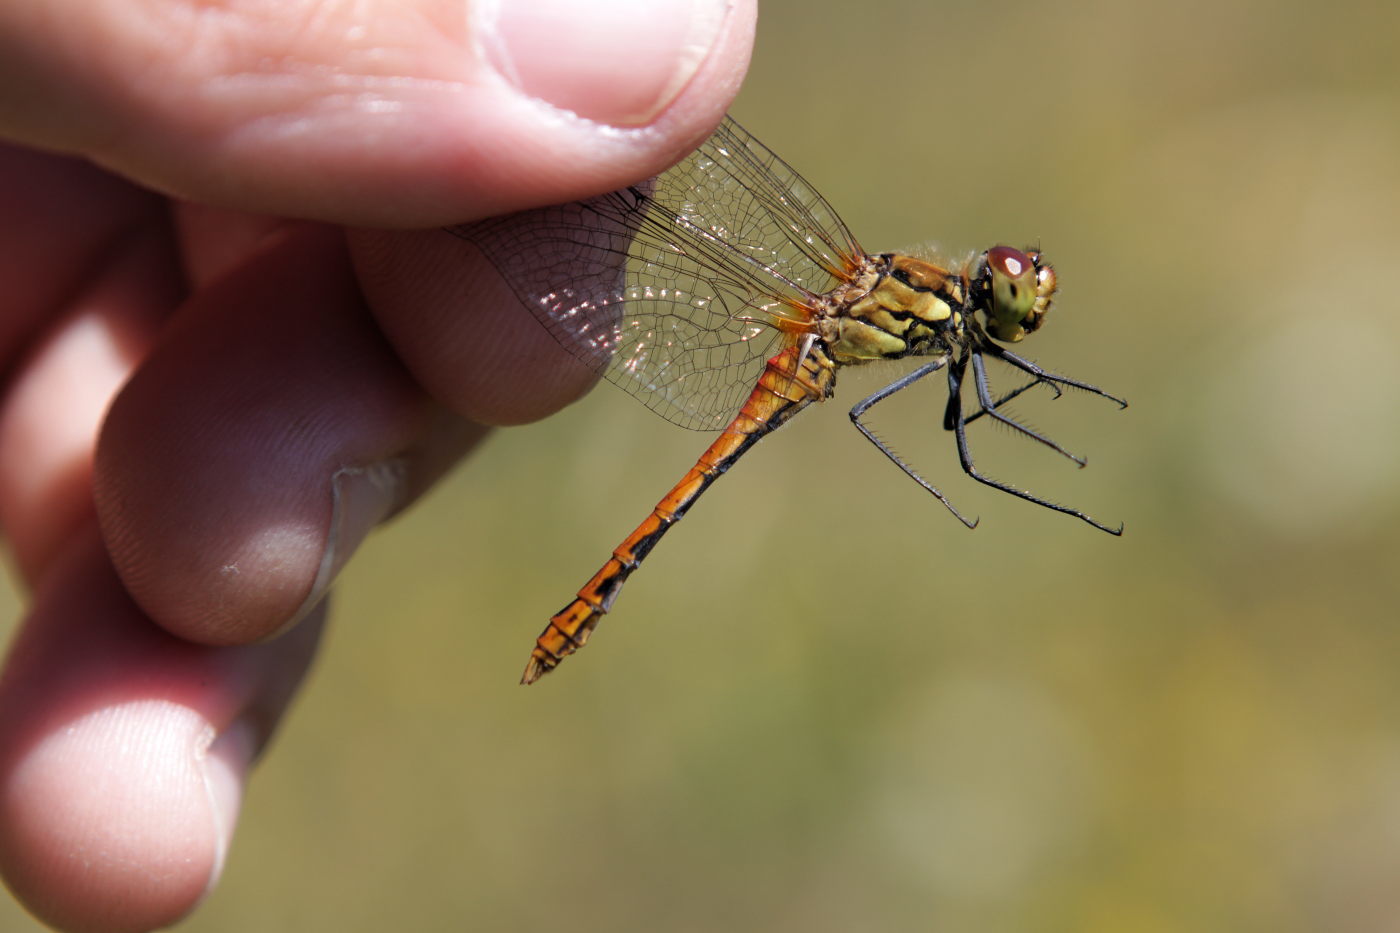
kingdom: Animalia
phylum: Arthropoda
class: Insecta
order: Odonata
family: Libellulidae
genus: Sympetrum
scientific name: Sympetrum sanguineum
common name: Ruddy darter
